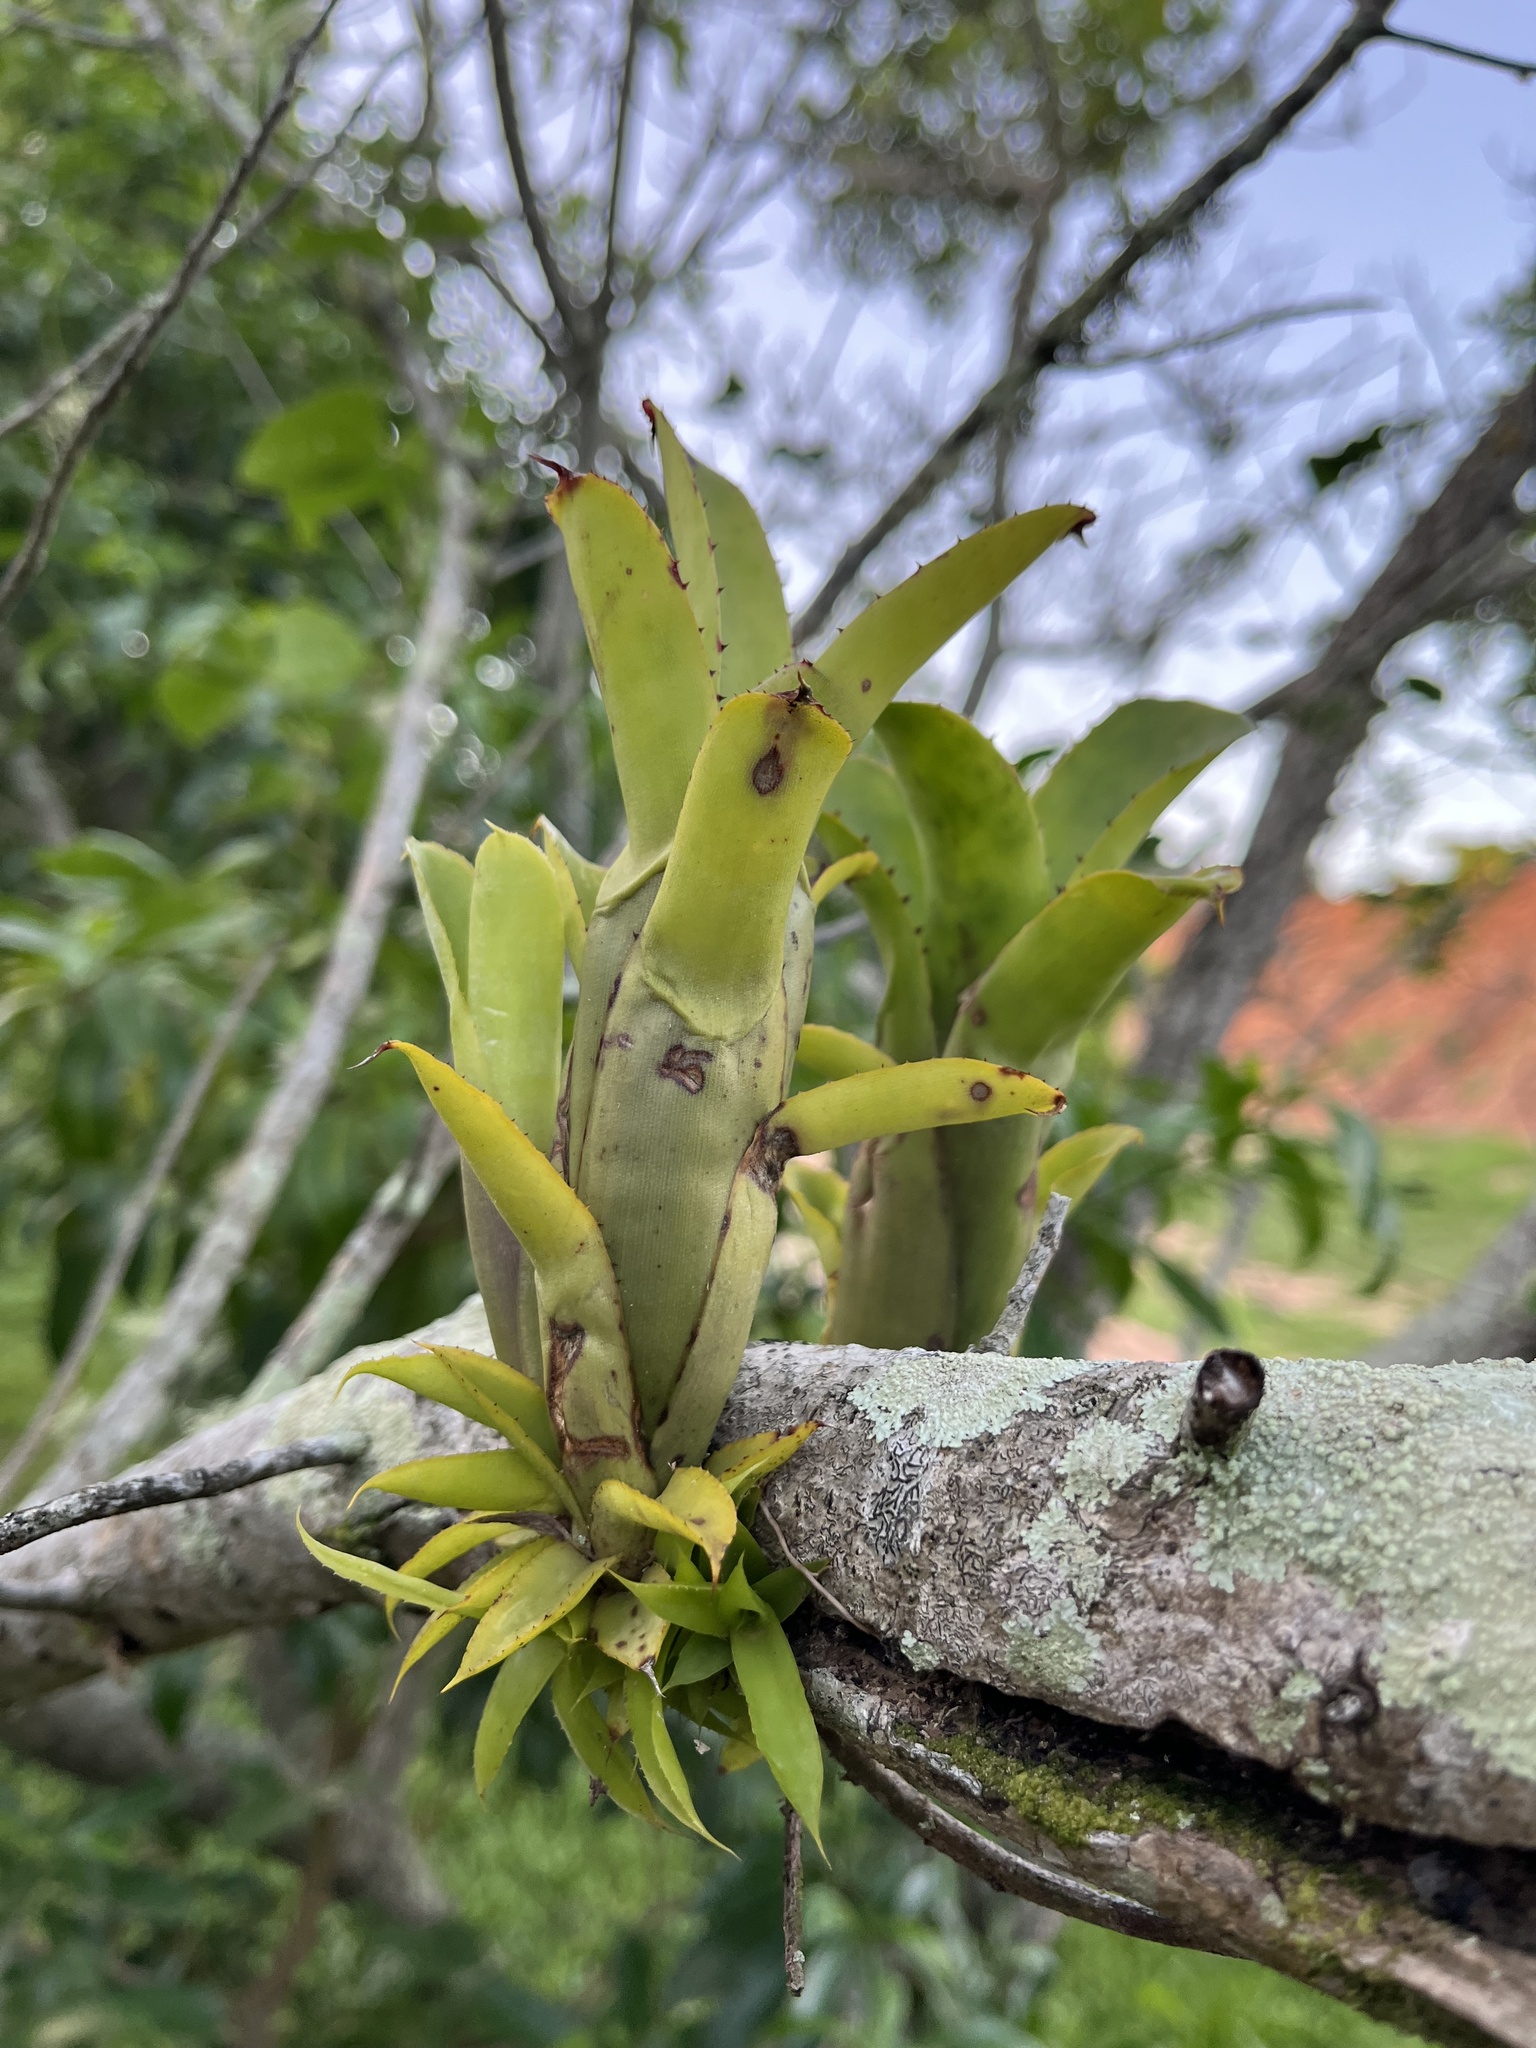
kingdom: Plantae
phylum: Tracheophyta
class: Liliopsida
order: Poales
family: Bromeliaceae
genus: Aechmea
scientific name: Aechmea nudicaulis
